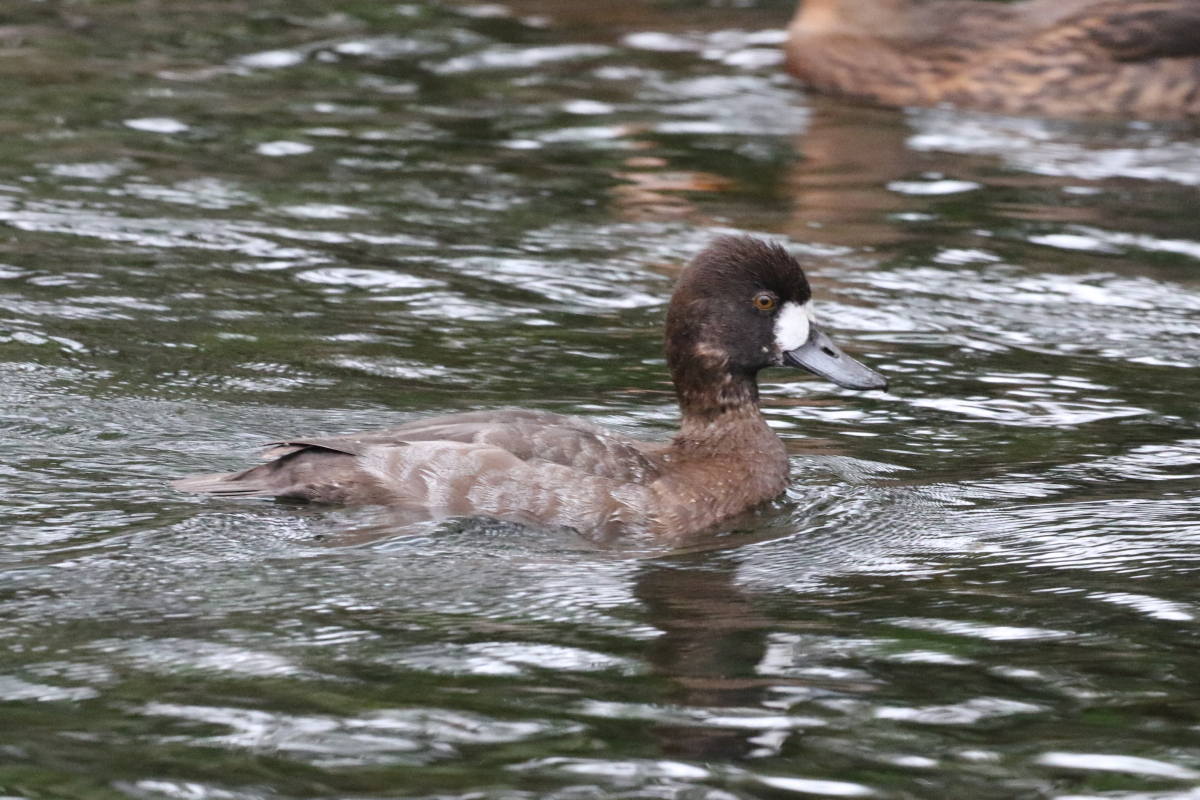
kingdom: Animalia
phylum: Chordata
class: Aves
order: Anseriformes
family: Anatidae
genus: Aythya
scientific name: Aythya affinis
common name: Lesser scaup
